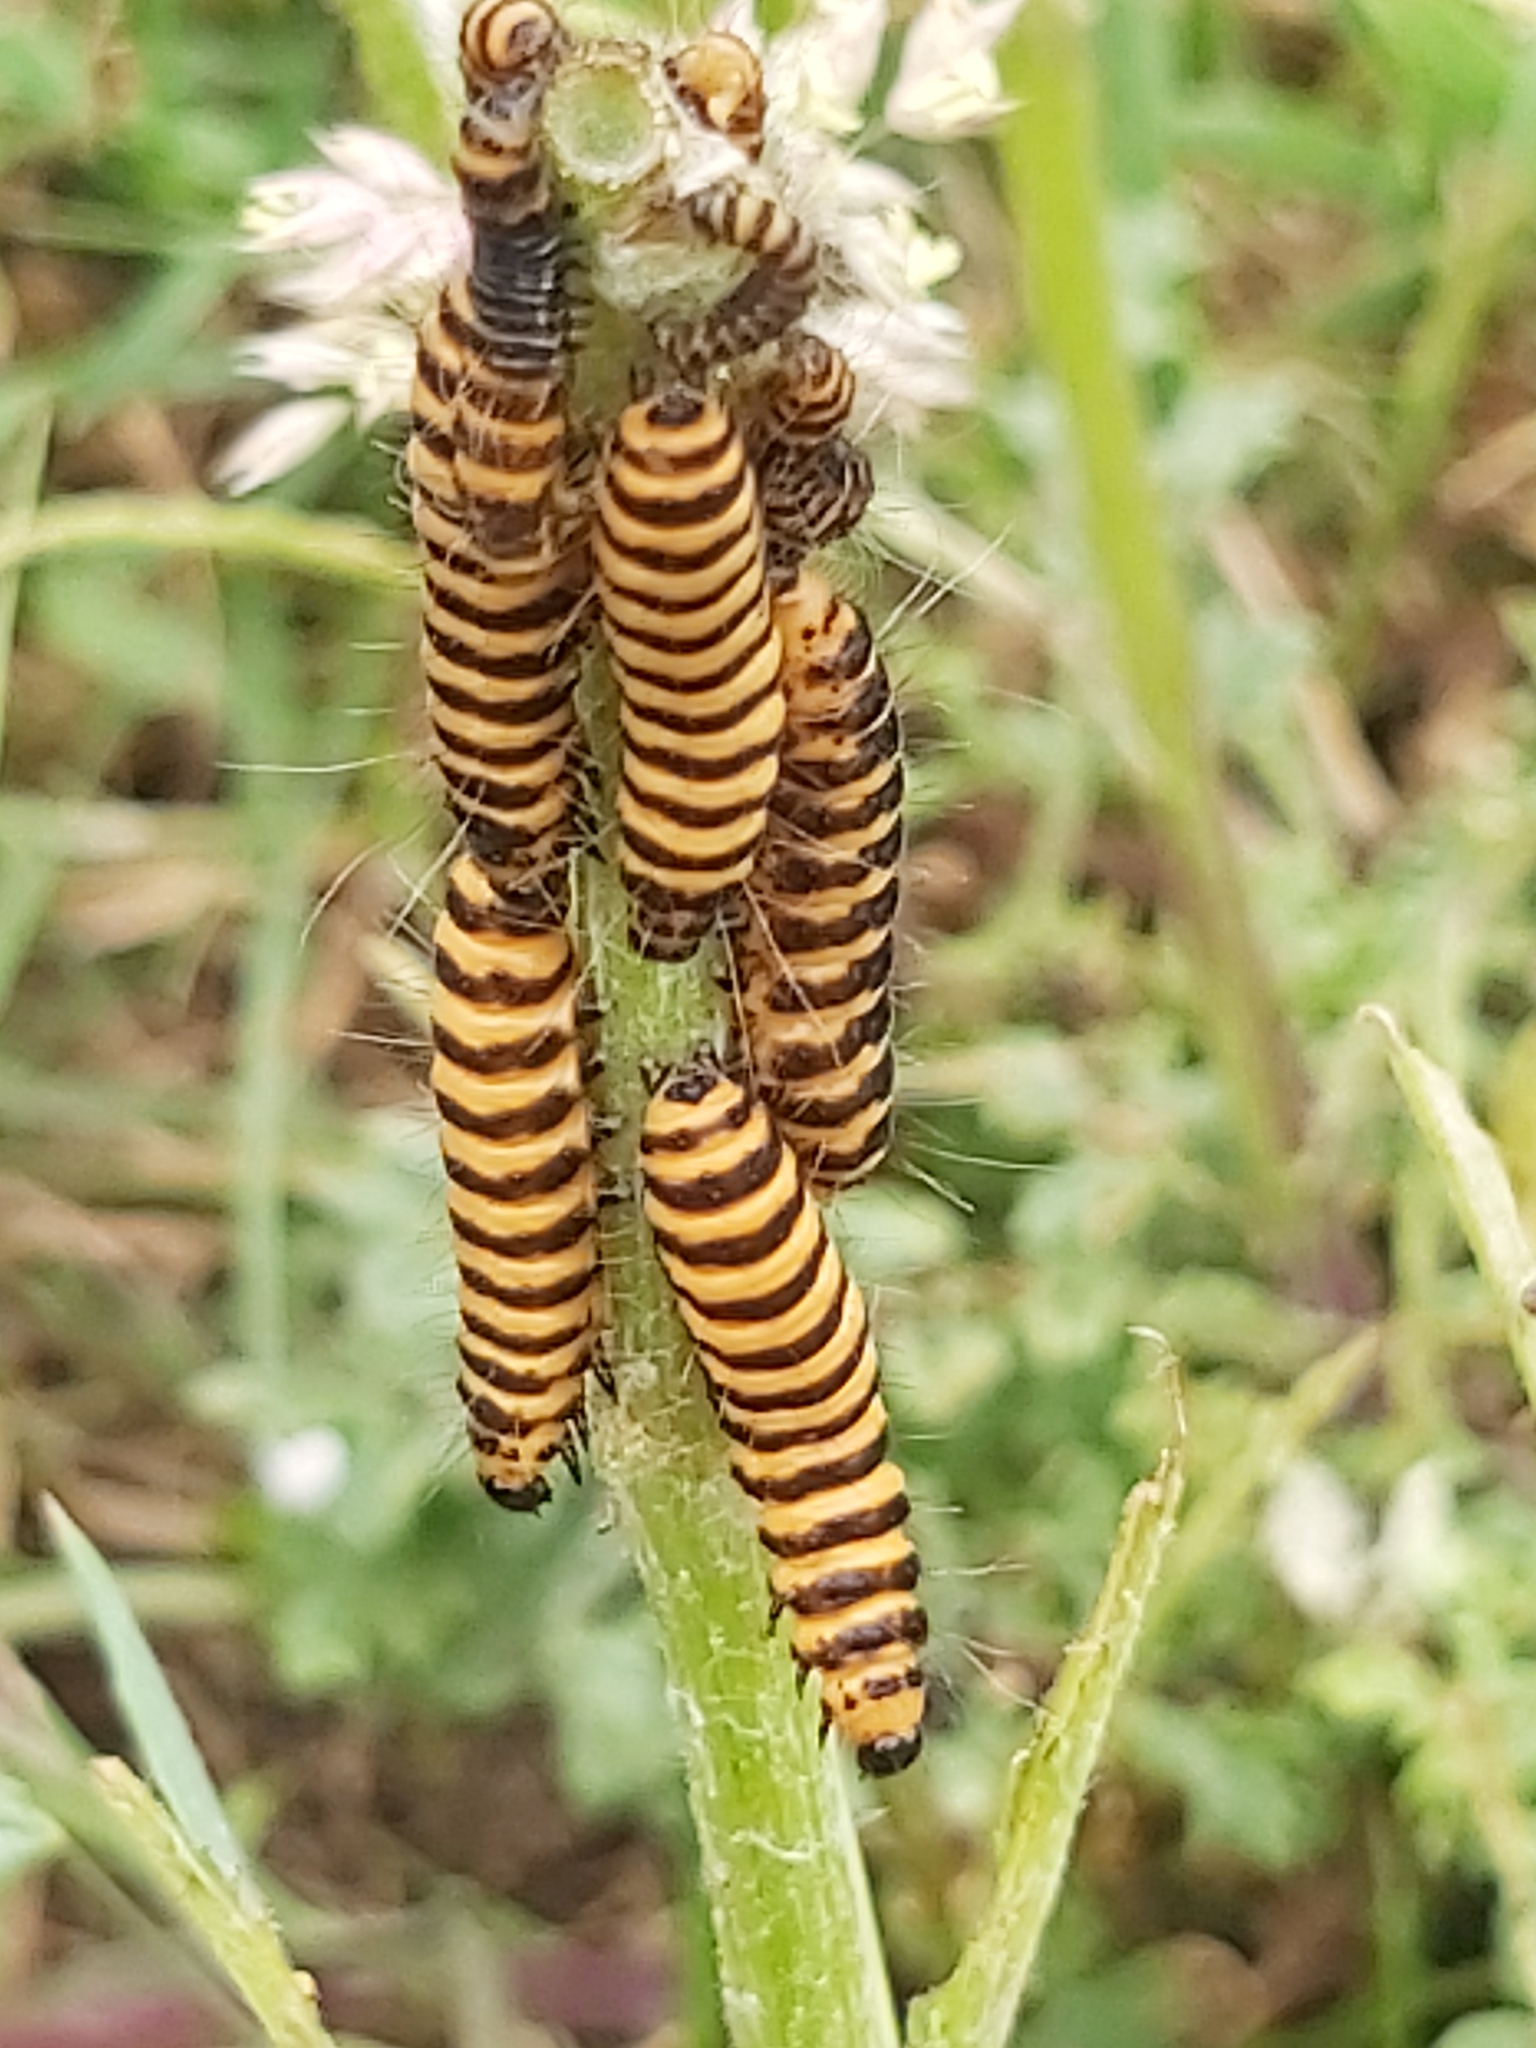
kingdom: Animalia
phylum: Arthropoda
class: Insecta
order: Lepidoptera
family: Erebidae
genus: Tyria
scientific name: Tyria jacobaeae
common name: Cinnabar
